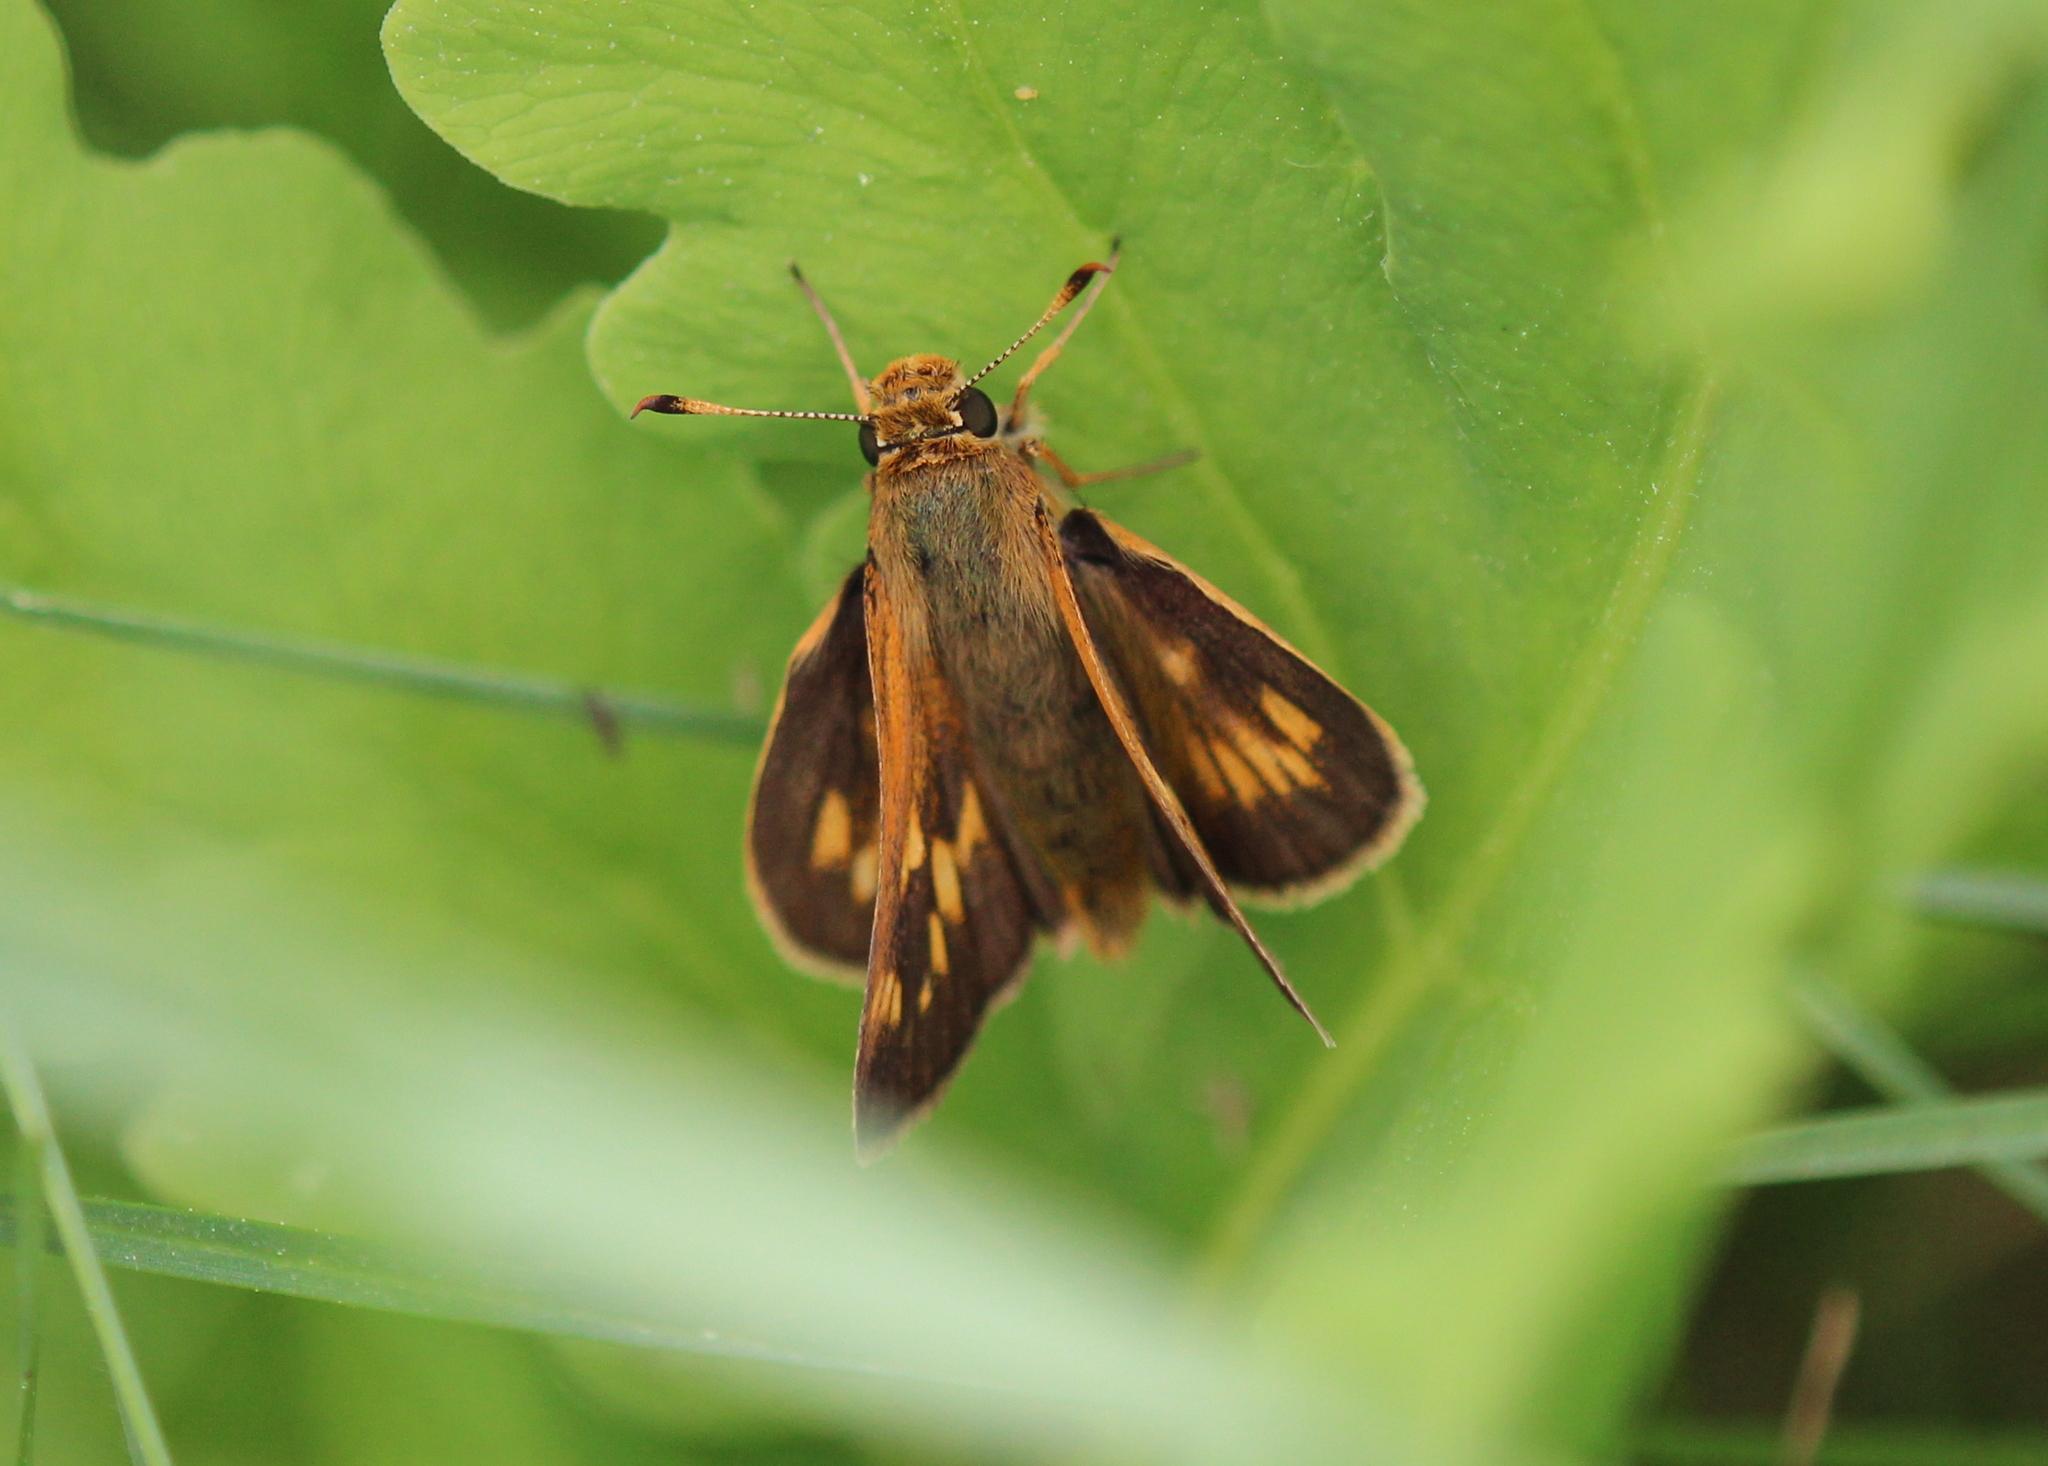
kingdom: Animalia
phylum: Arthropoda
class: Insecta
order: Lepidoptera
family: Hesperiidae
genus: Polites
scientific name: Polites coras
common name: Peck's skipper
